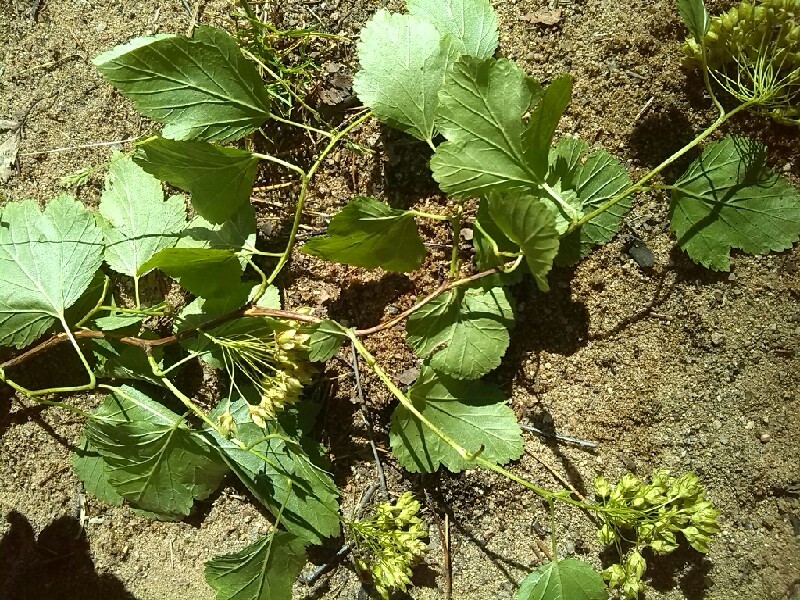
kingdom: Plantae
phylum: Tracheophyta
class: Magnoliopsida
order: Rosales
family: Rosaceae
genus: Physocarpus
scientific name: Physocarpus opulifolius
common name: Ninebark
